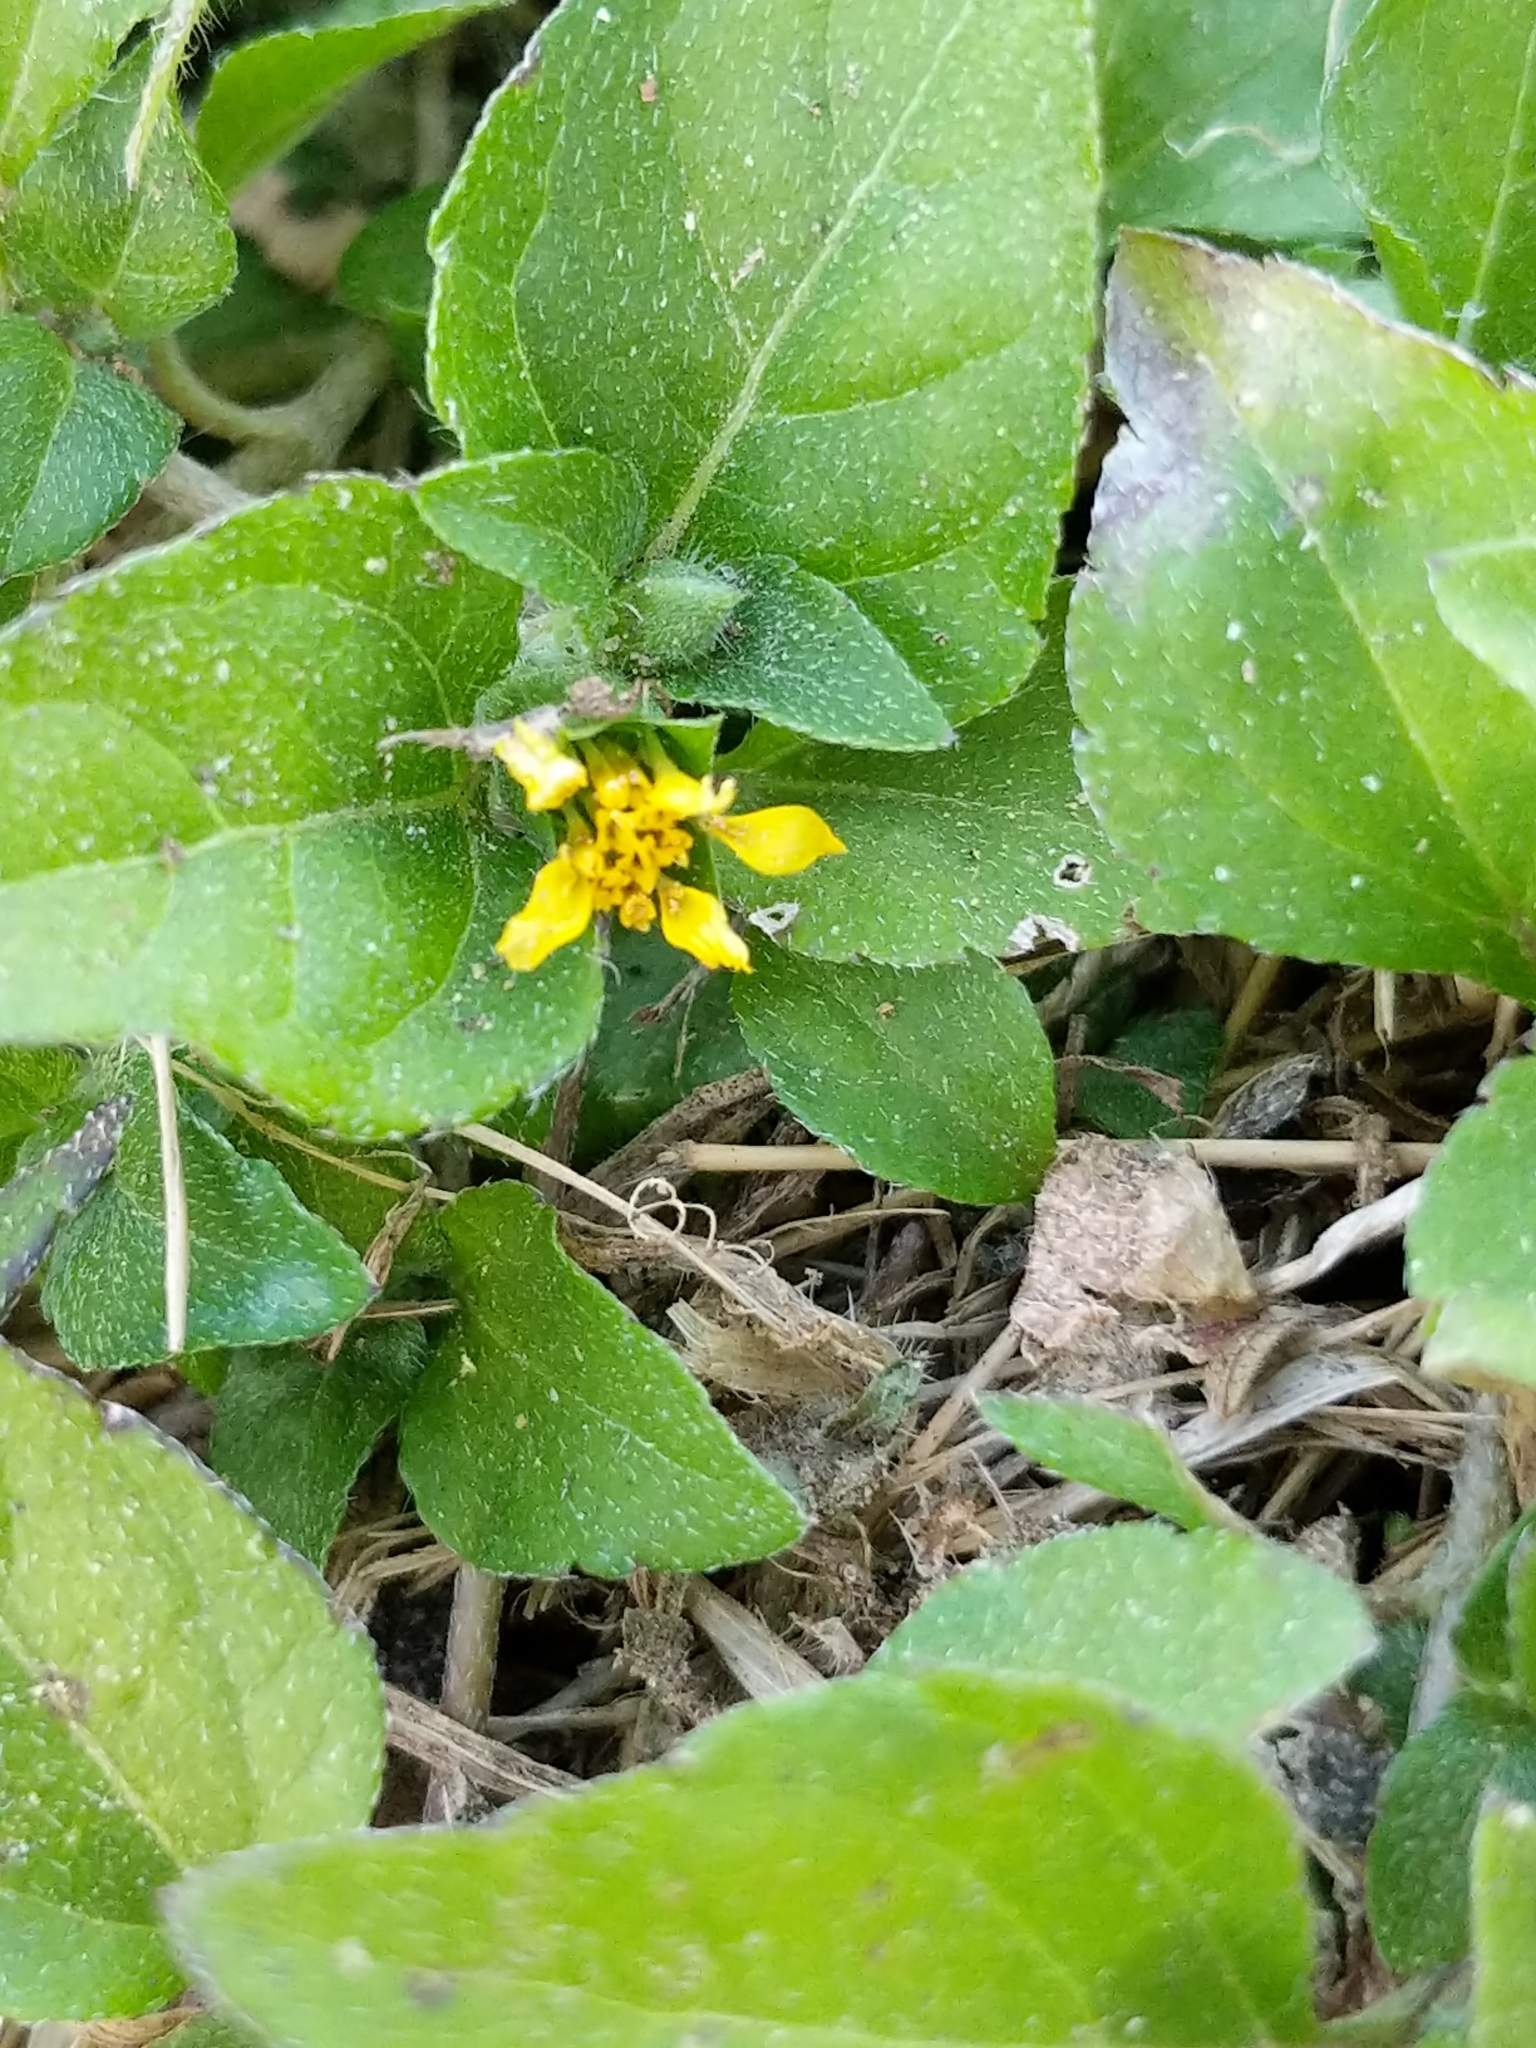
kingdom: Plantae
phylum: Tracheophyta
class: Magnoliopsida
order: Asterales
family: Asteraceae
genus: Calyptocarpus
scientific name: Calyptocarpus vialis
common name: Straggler daisy
